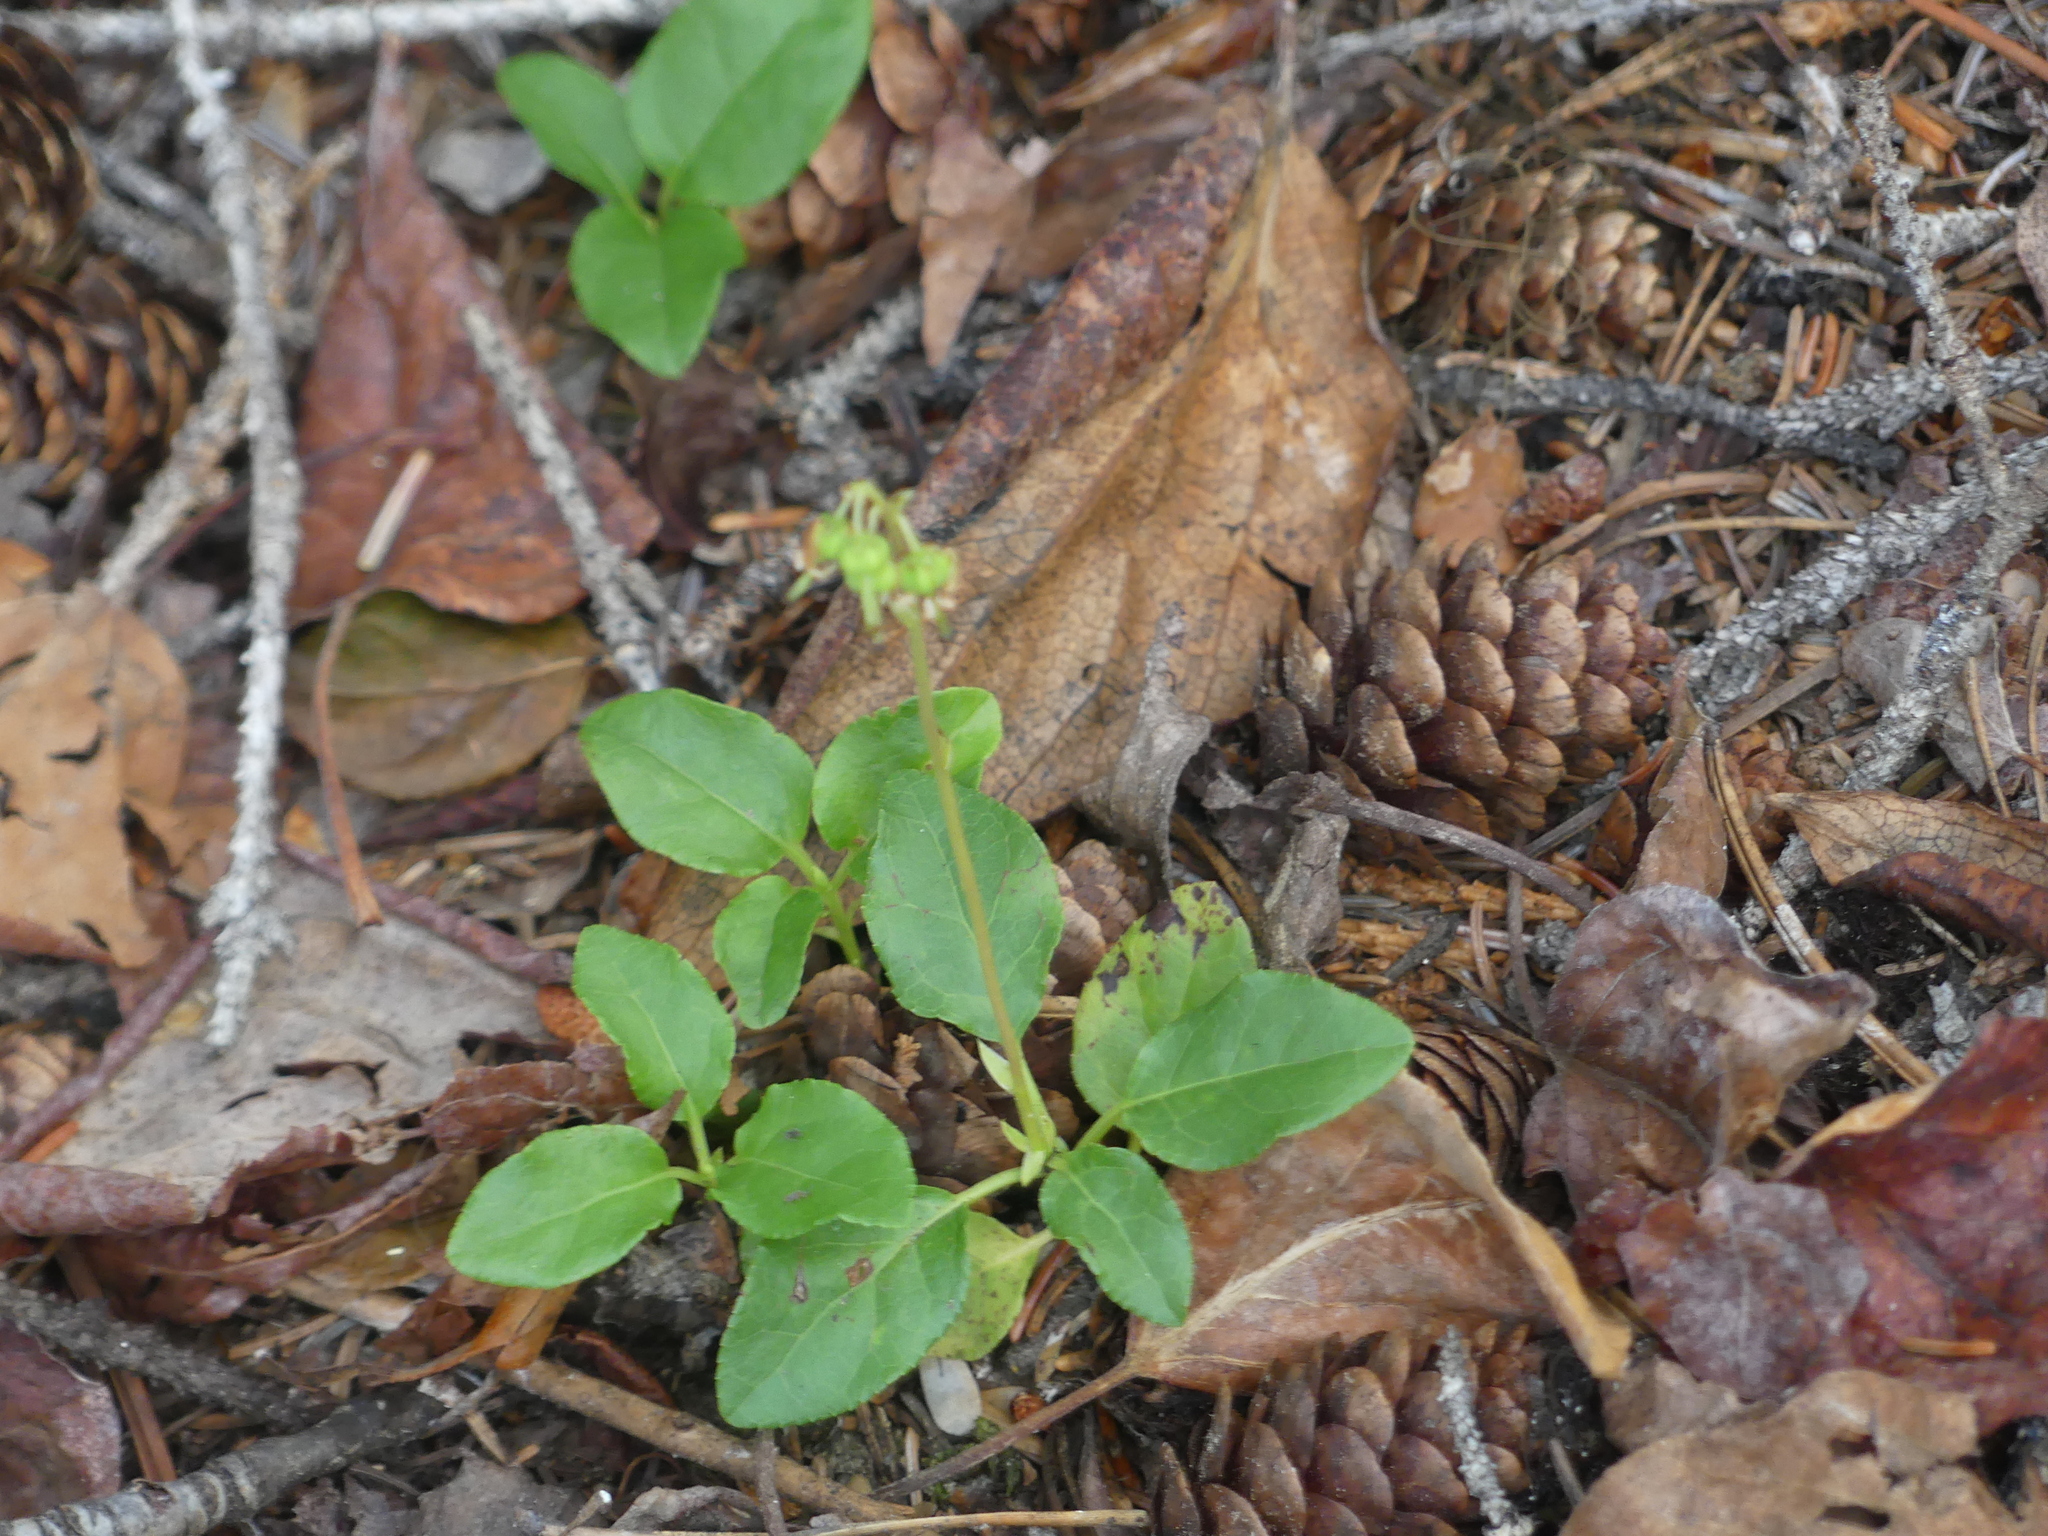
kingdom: Plantae
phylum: Tracheophyta
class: Magnoliopsida
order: Ericales
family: Ericaceae
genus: Orthilia
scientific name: Orthilia secunda
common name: One-sided orthilia
